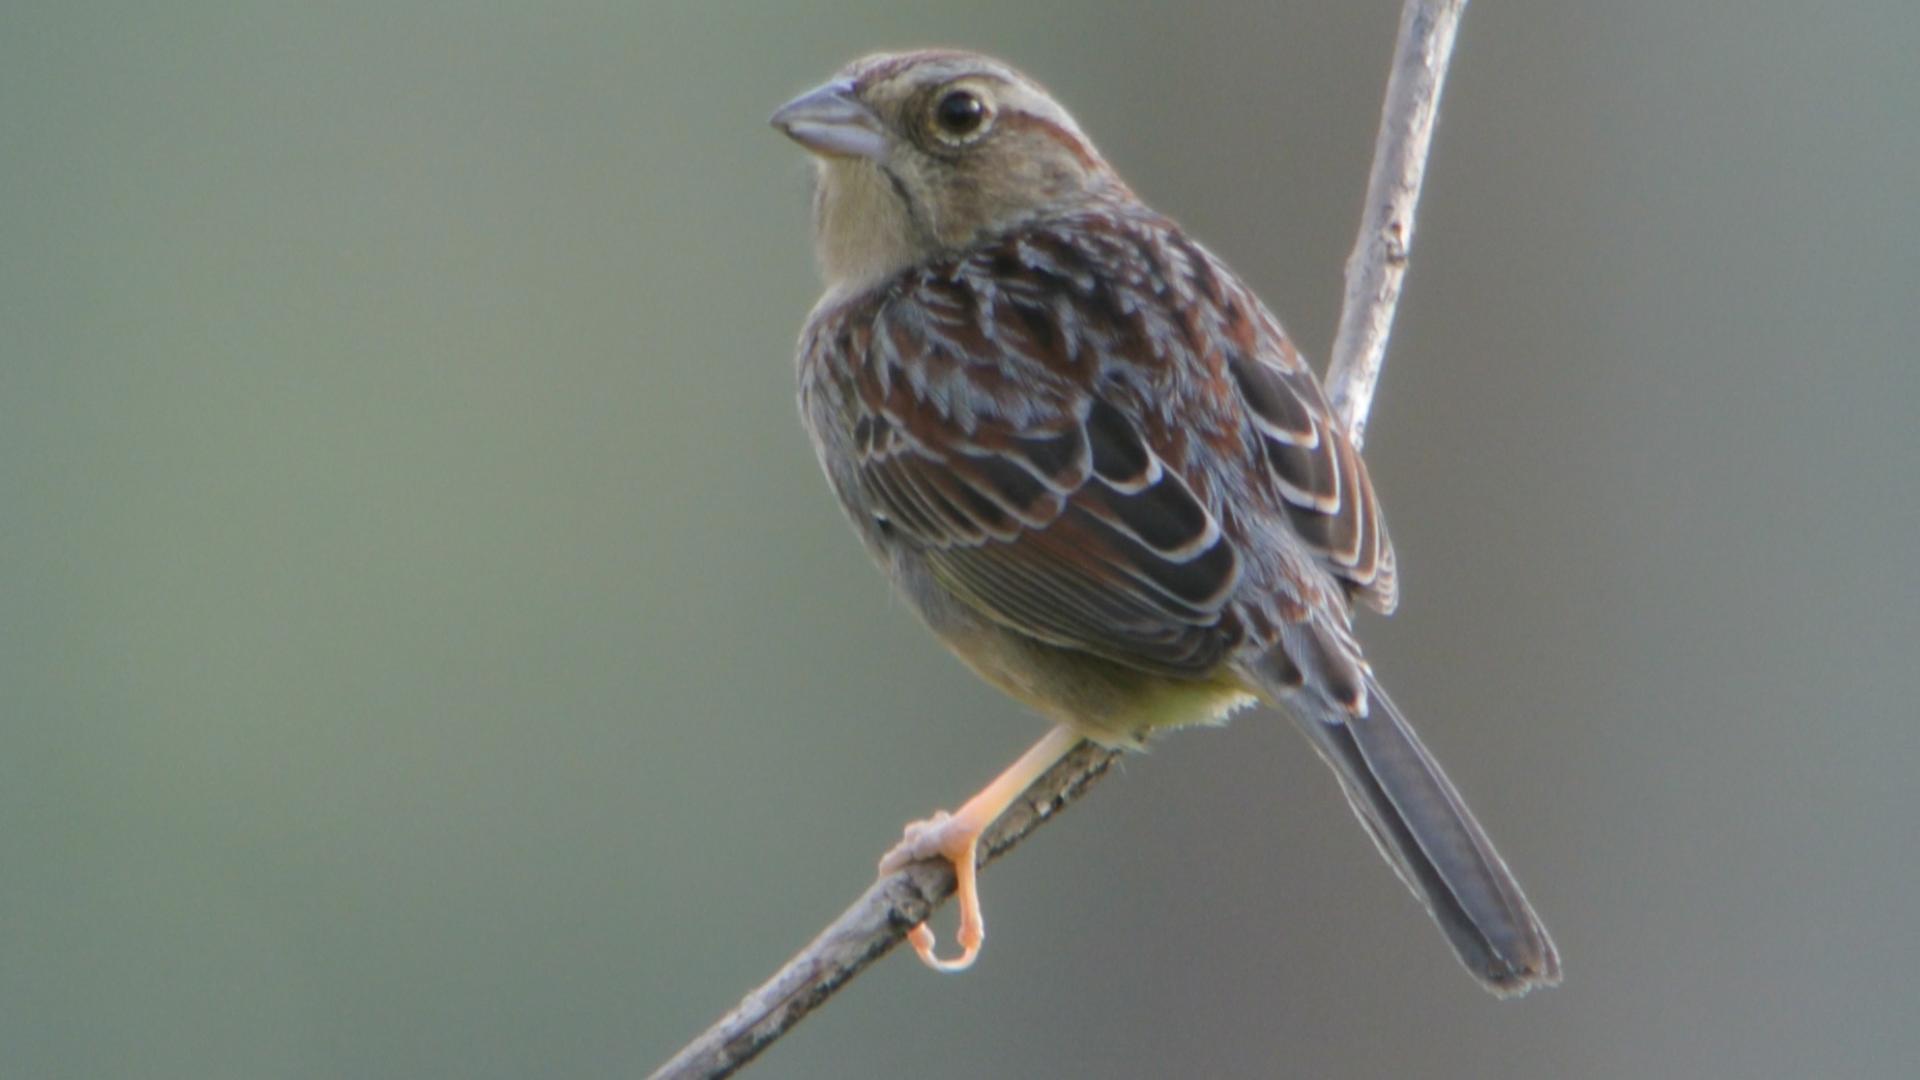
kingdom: Animalia
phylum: Chordata
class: Aves
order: Passeriformes
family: Passerellidae
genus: Peucaea
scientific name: Peucaea aestivalis
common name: Bachman's sparrow
